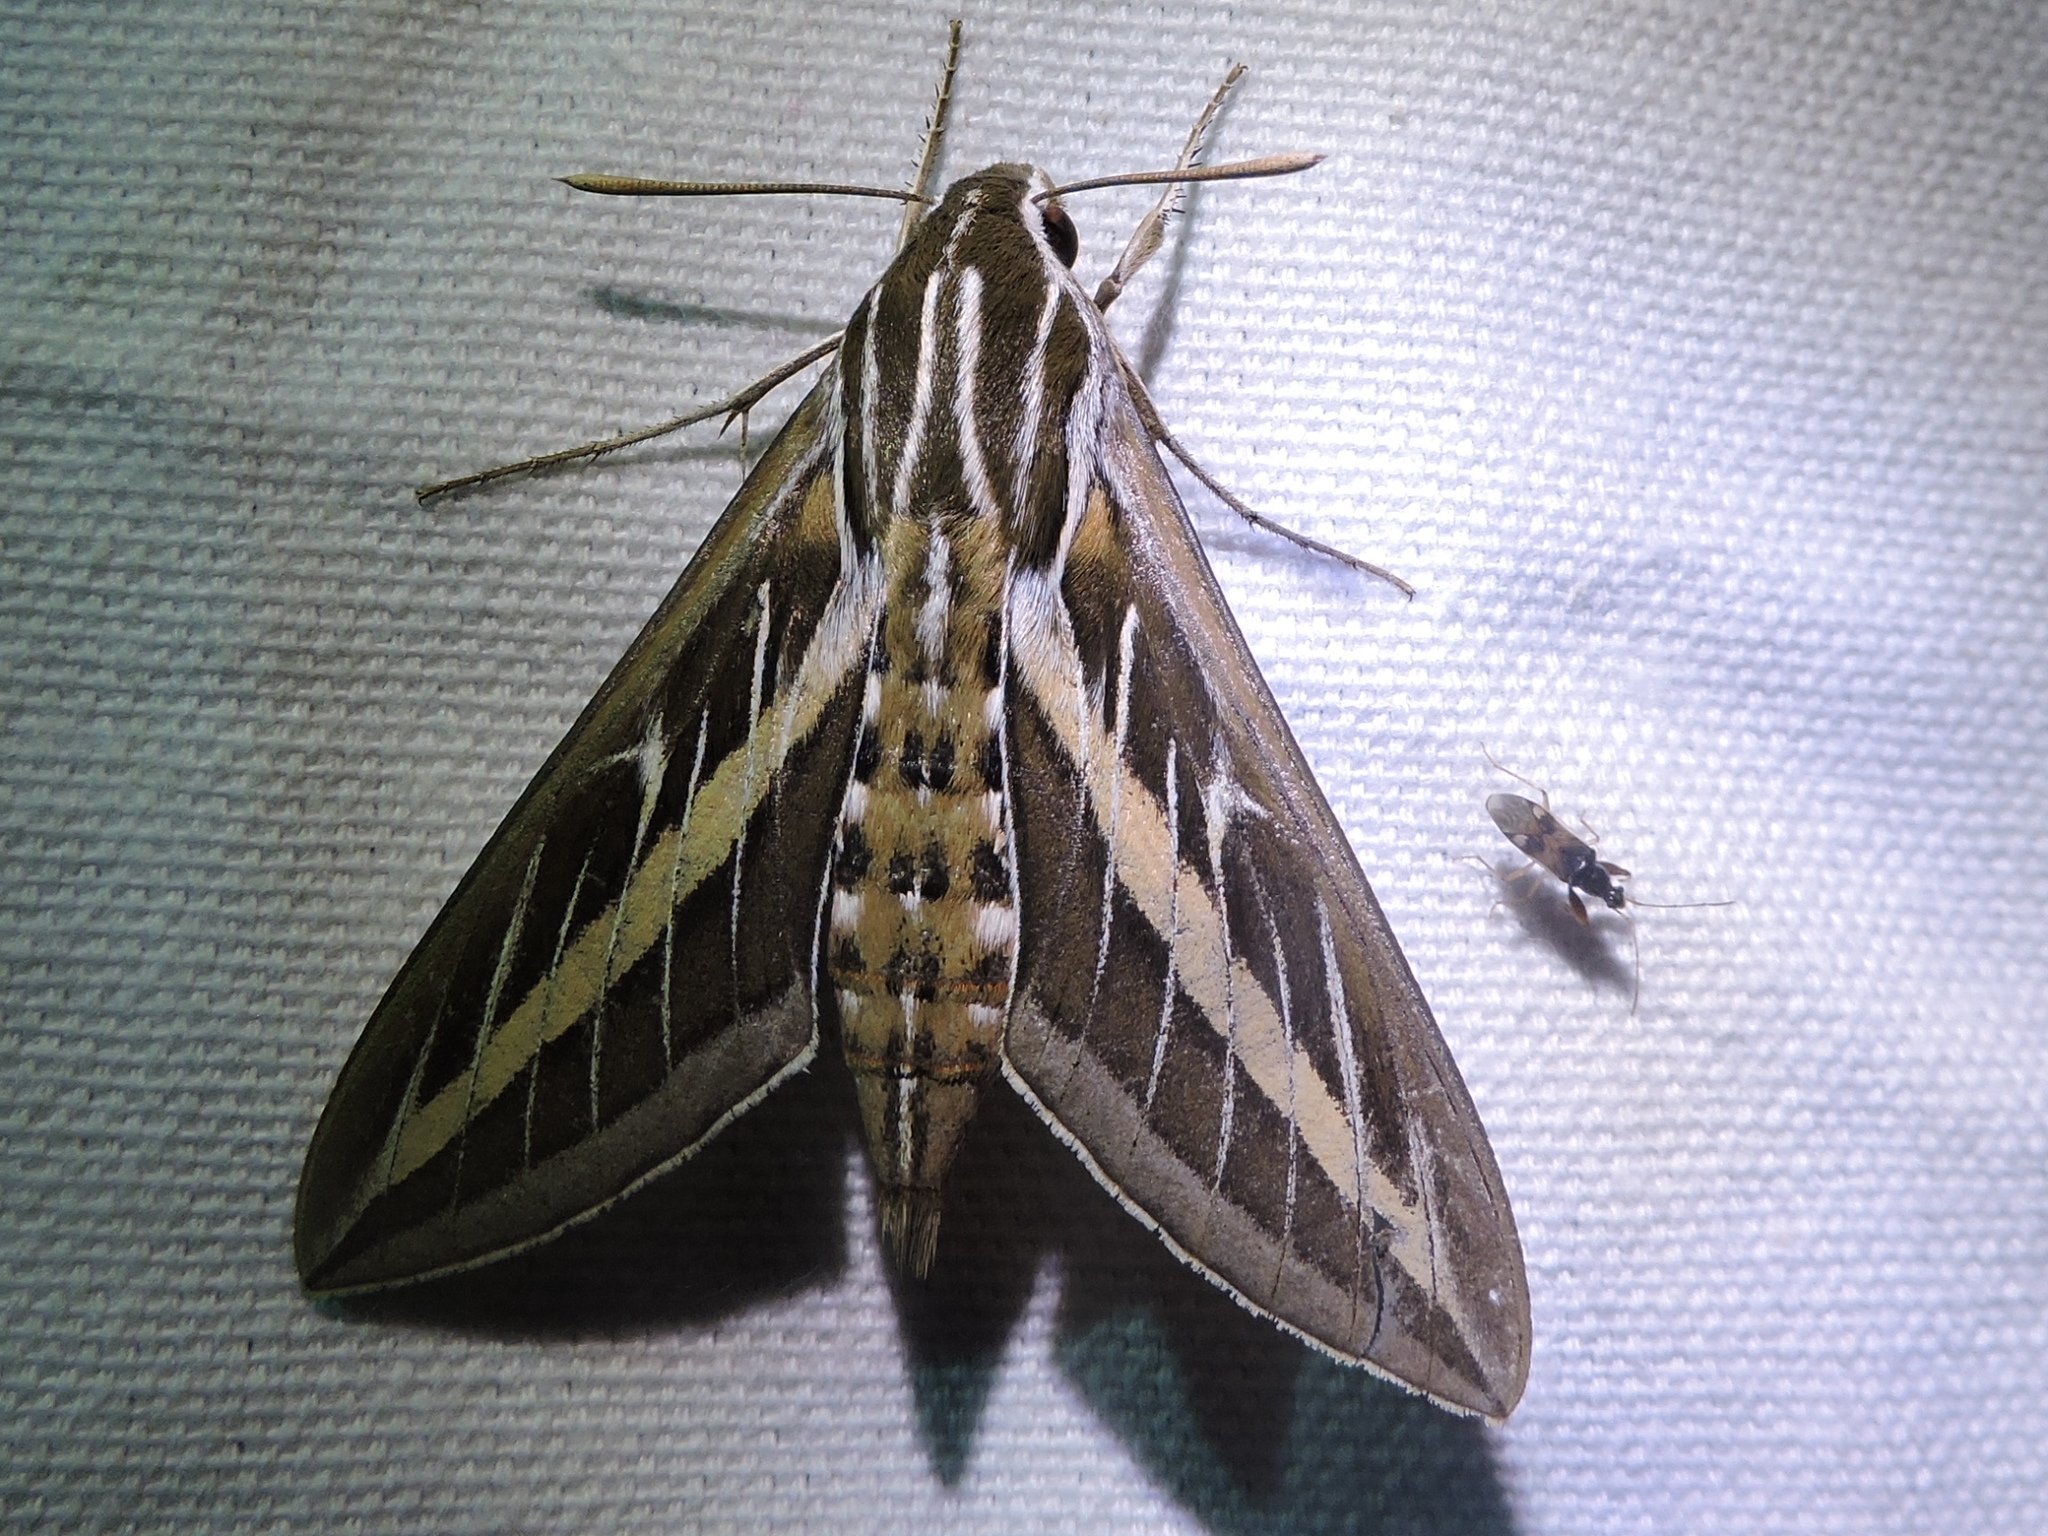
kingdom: Animalia
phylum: Arthropoda
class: Insecta
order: Lepidoptera
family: Sphingidae
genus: Hyles
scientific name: Hyles lineata
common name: White-lined sphinx
